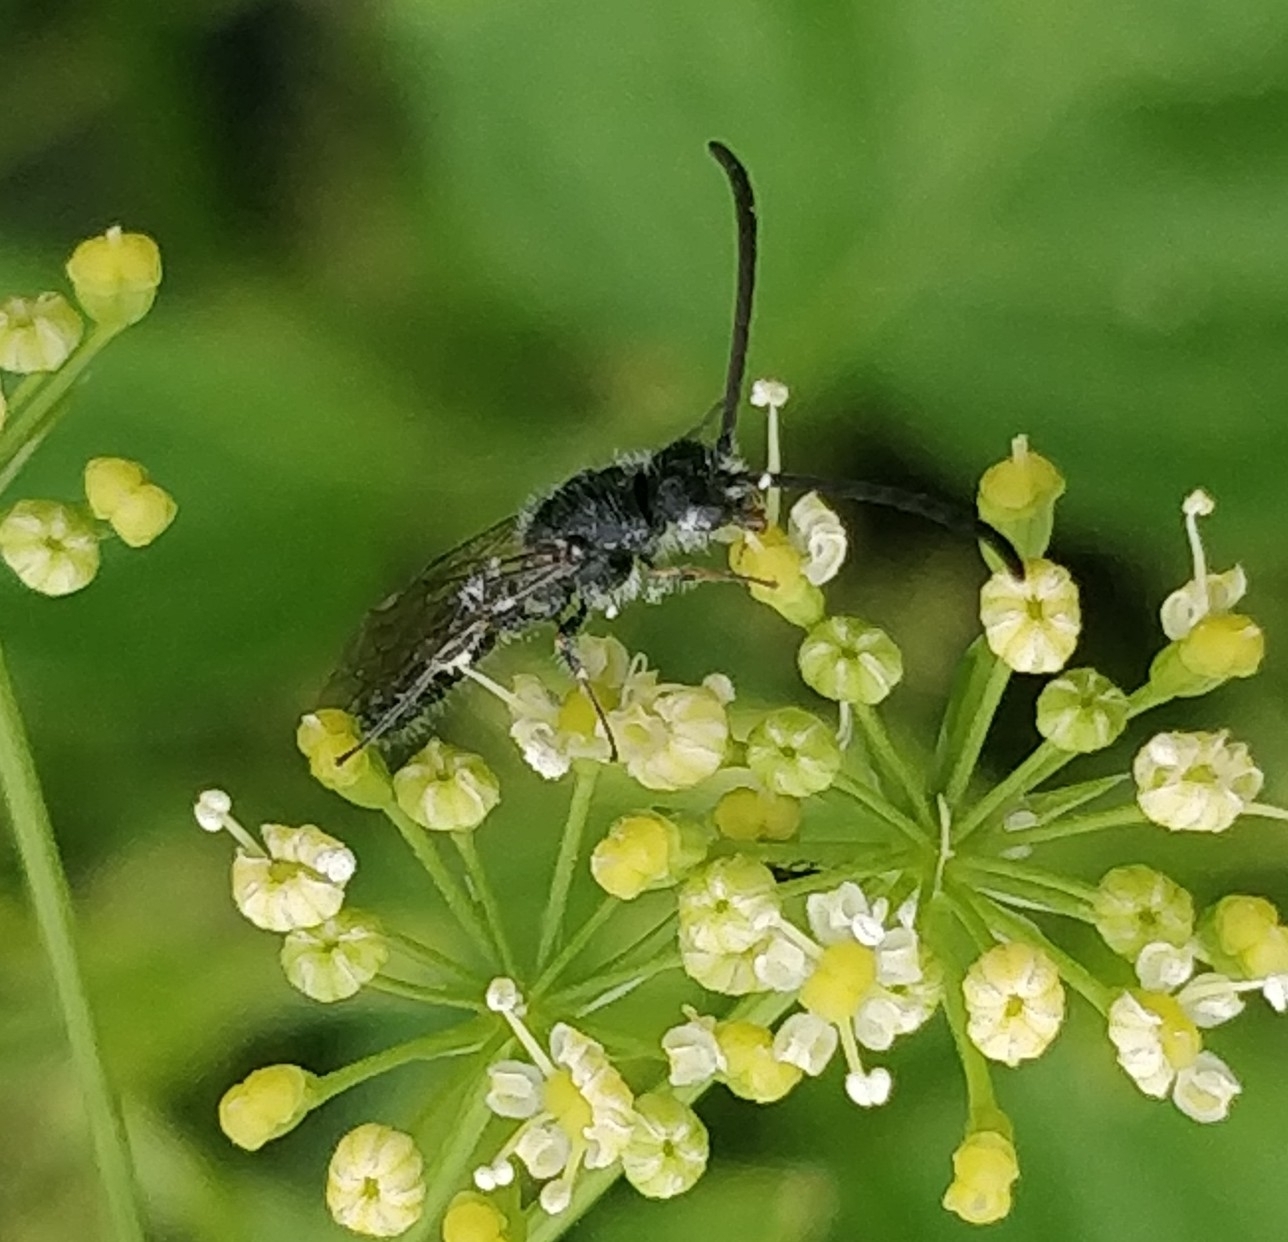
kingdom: Animalia
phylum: Arthropoda
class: Insecta
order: Hymenoptera
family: Tiphiidae
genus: Poecilotiphia
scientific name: Poecilotiphia
